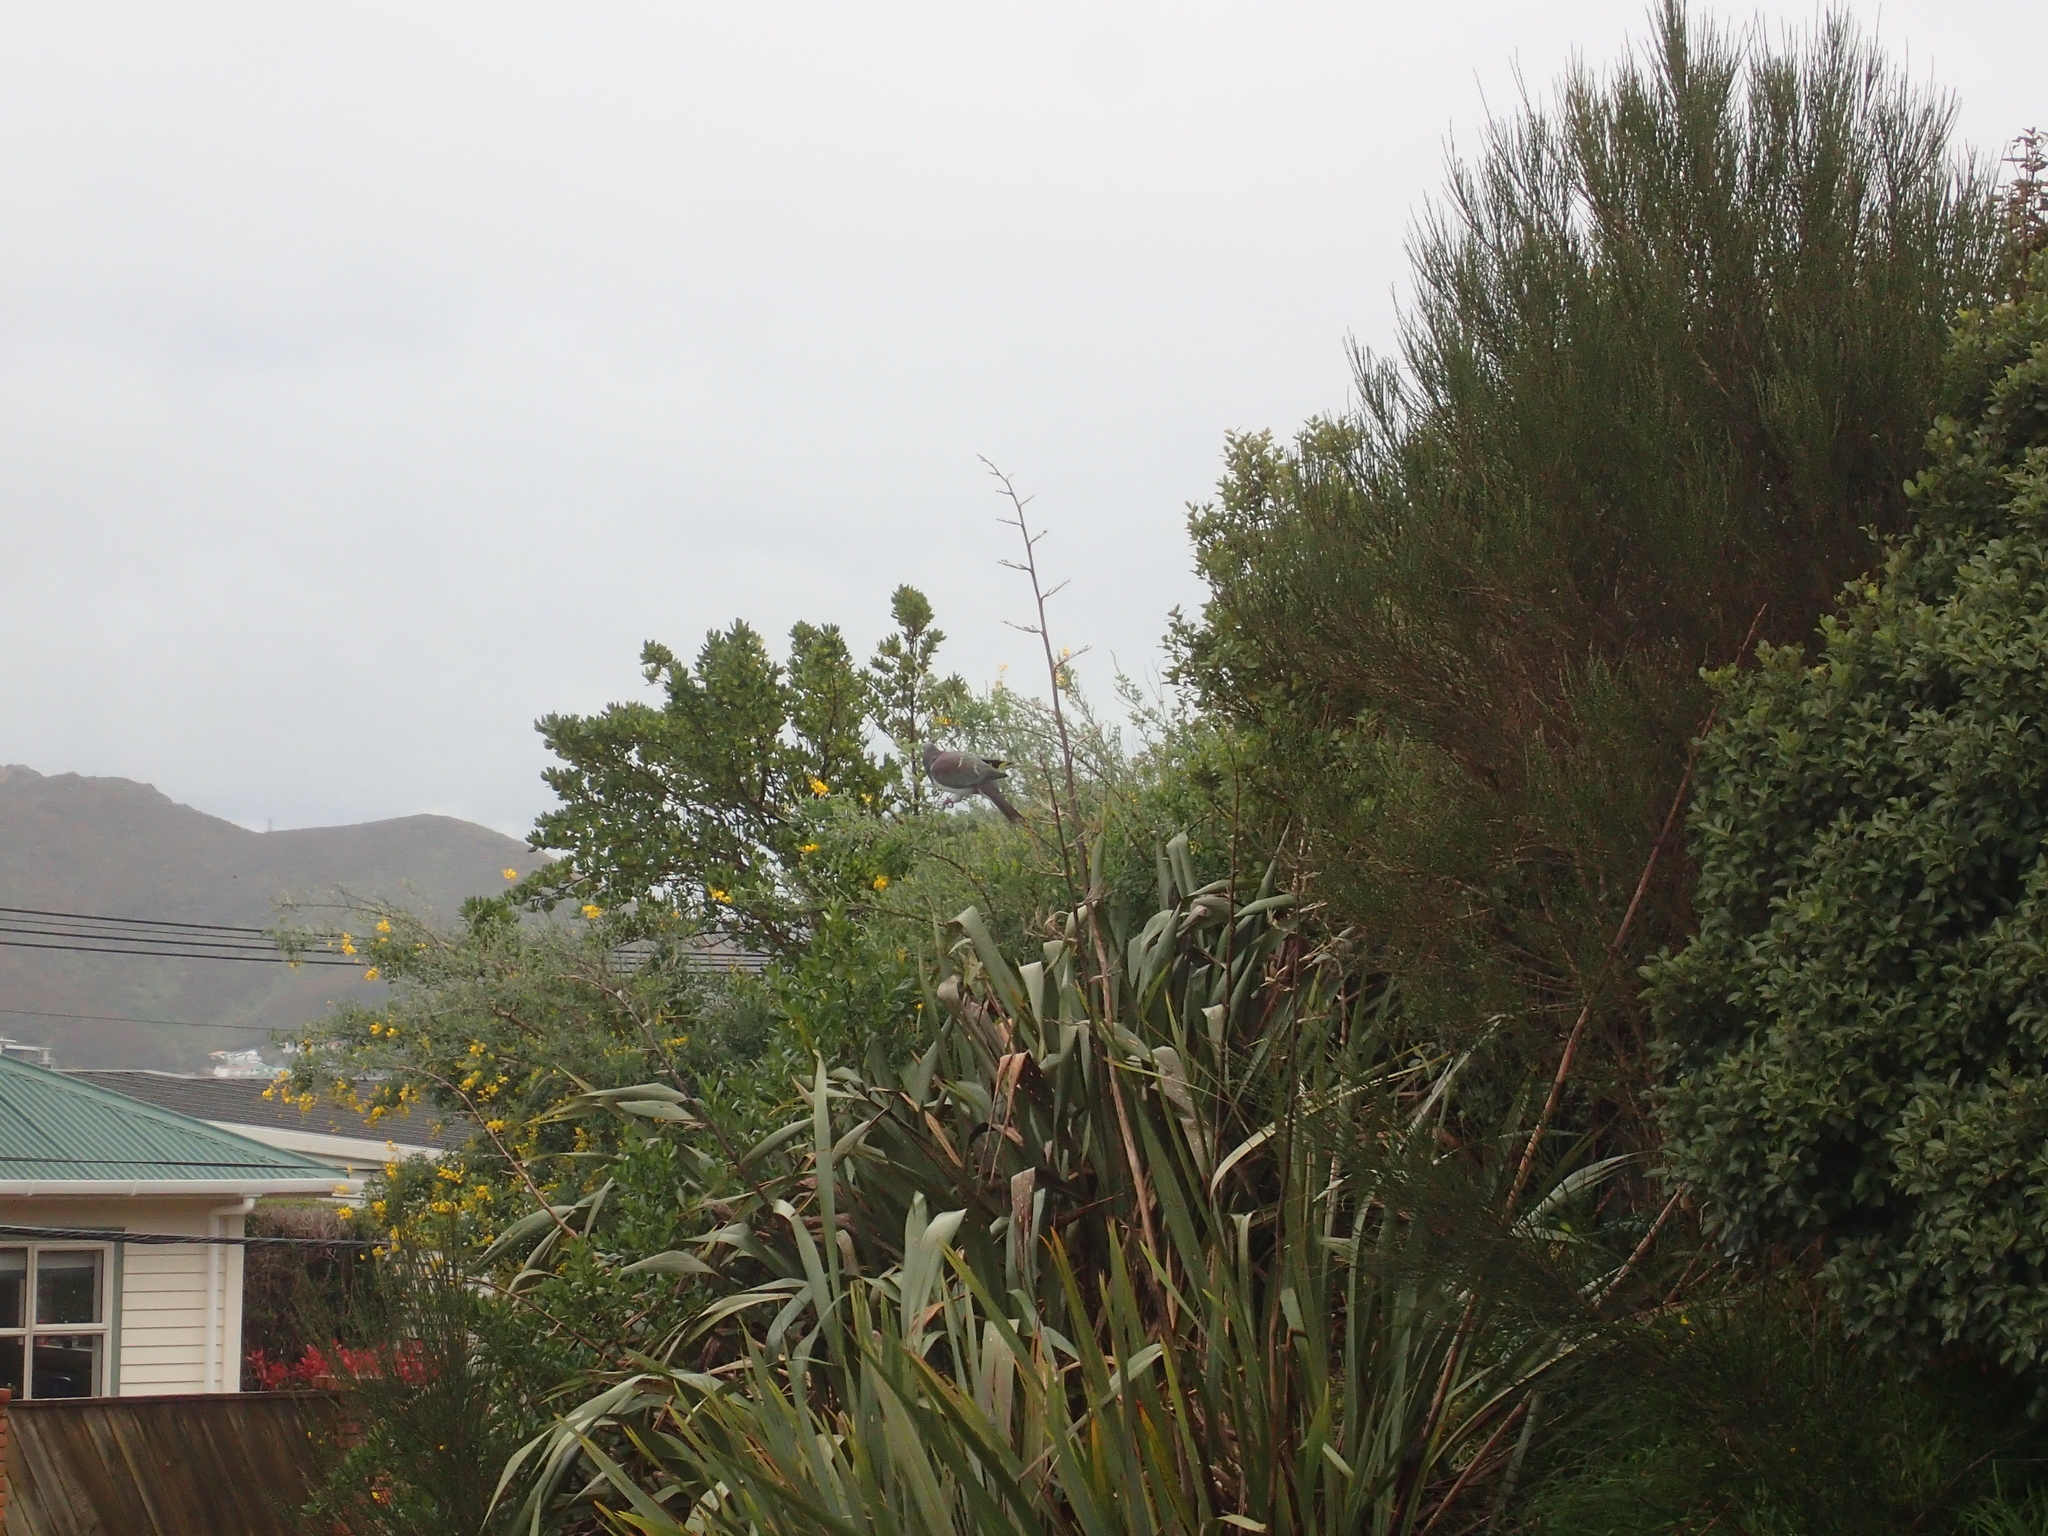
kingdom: Animalia
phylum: Chordata
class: Aves
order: Columbiformes
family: Columbidae
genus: Hemiphaga
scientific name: Hemiphaga novaeseelandiae
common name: New zealand pigeon
